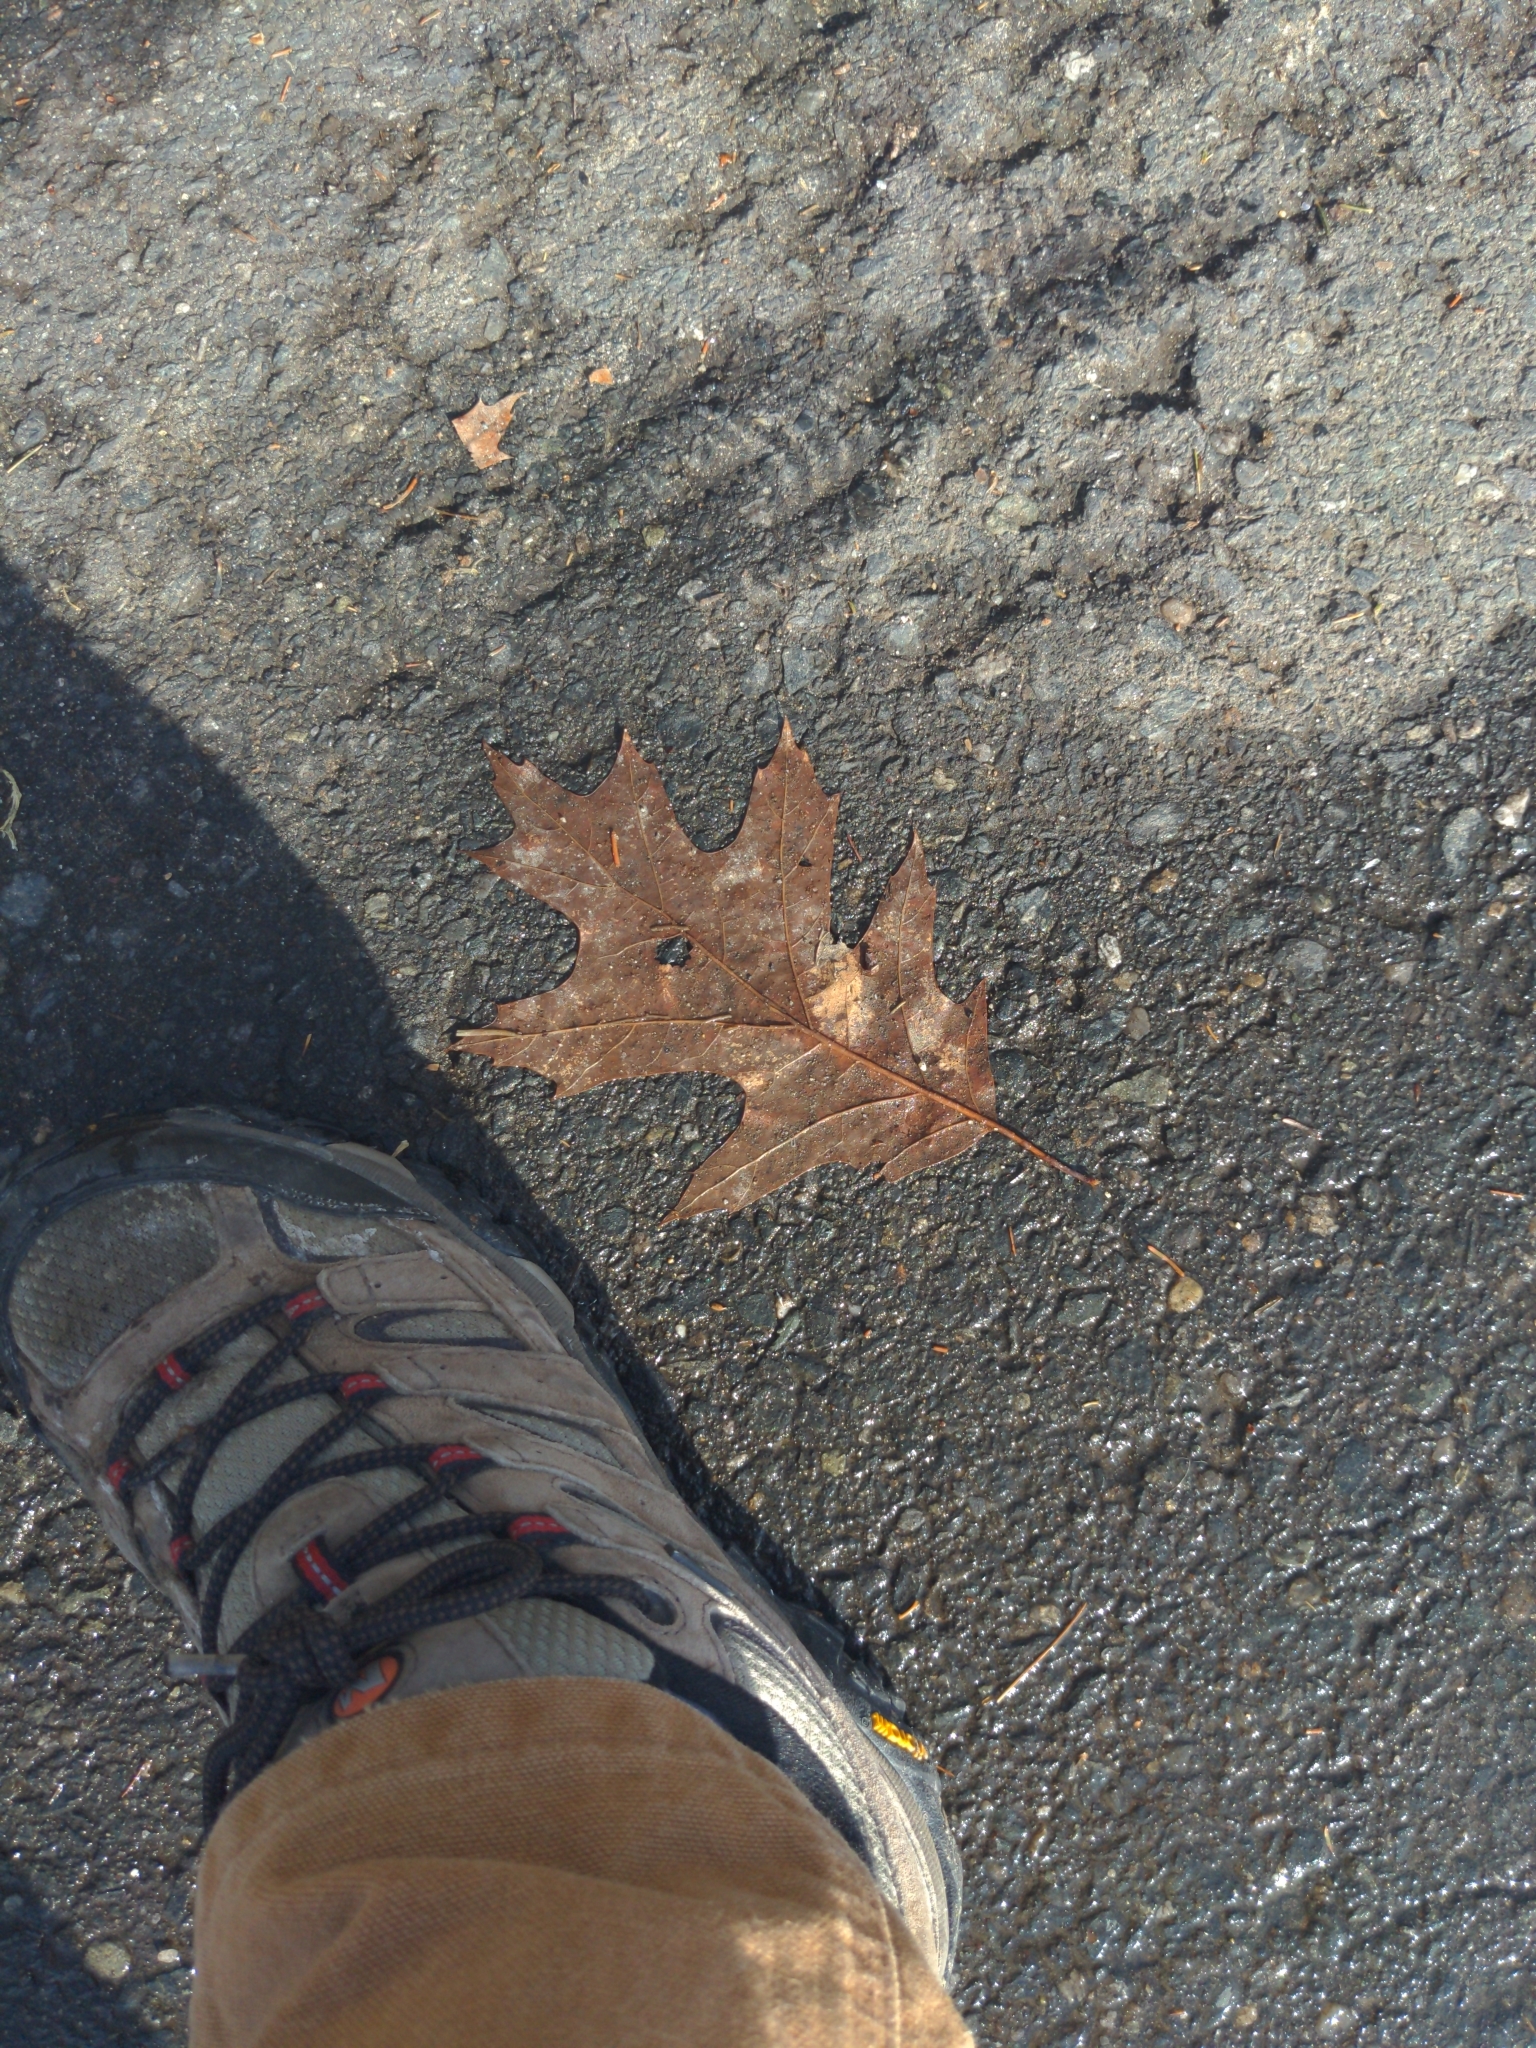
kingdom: Plantae
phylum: Tracheophyta
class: Magnoliopsida
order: Fagales
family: Fagaceae
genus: Quercus
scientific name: Quercus rubra
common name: Red oak
